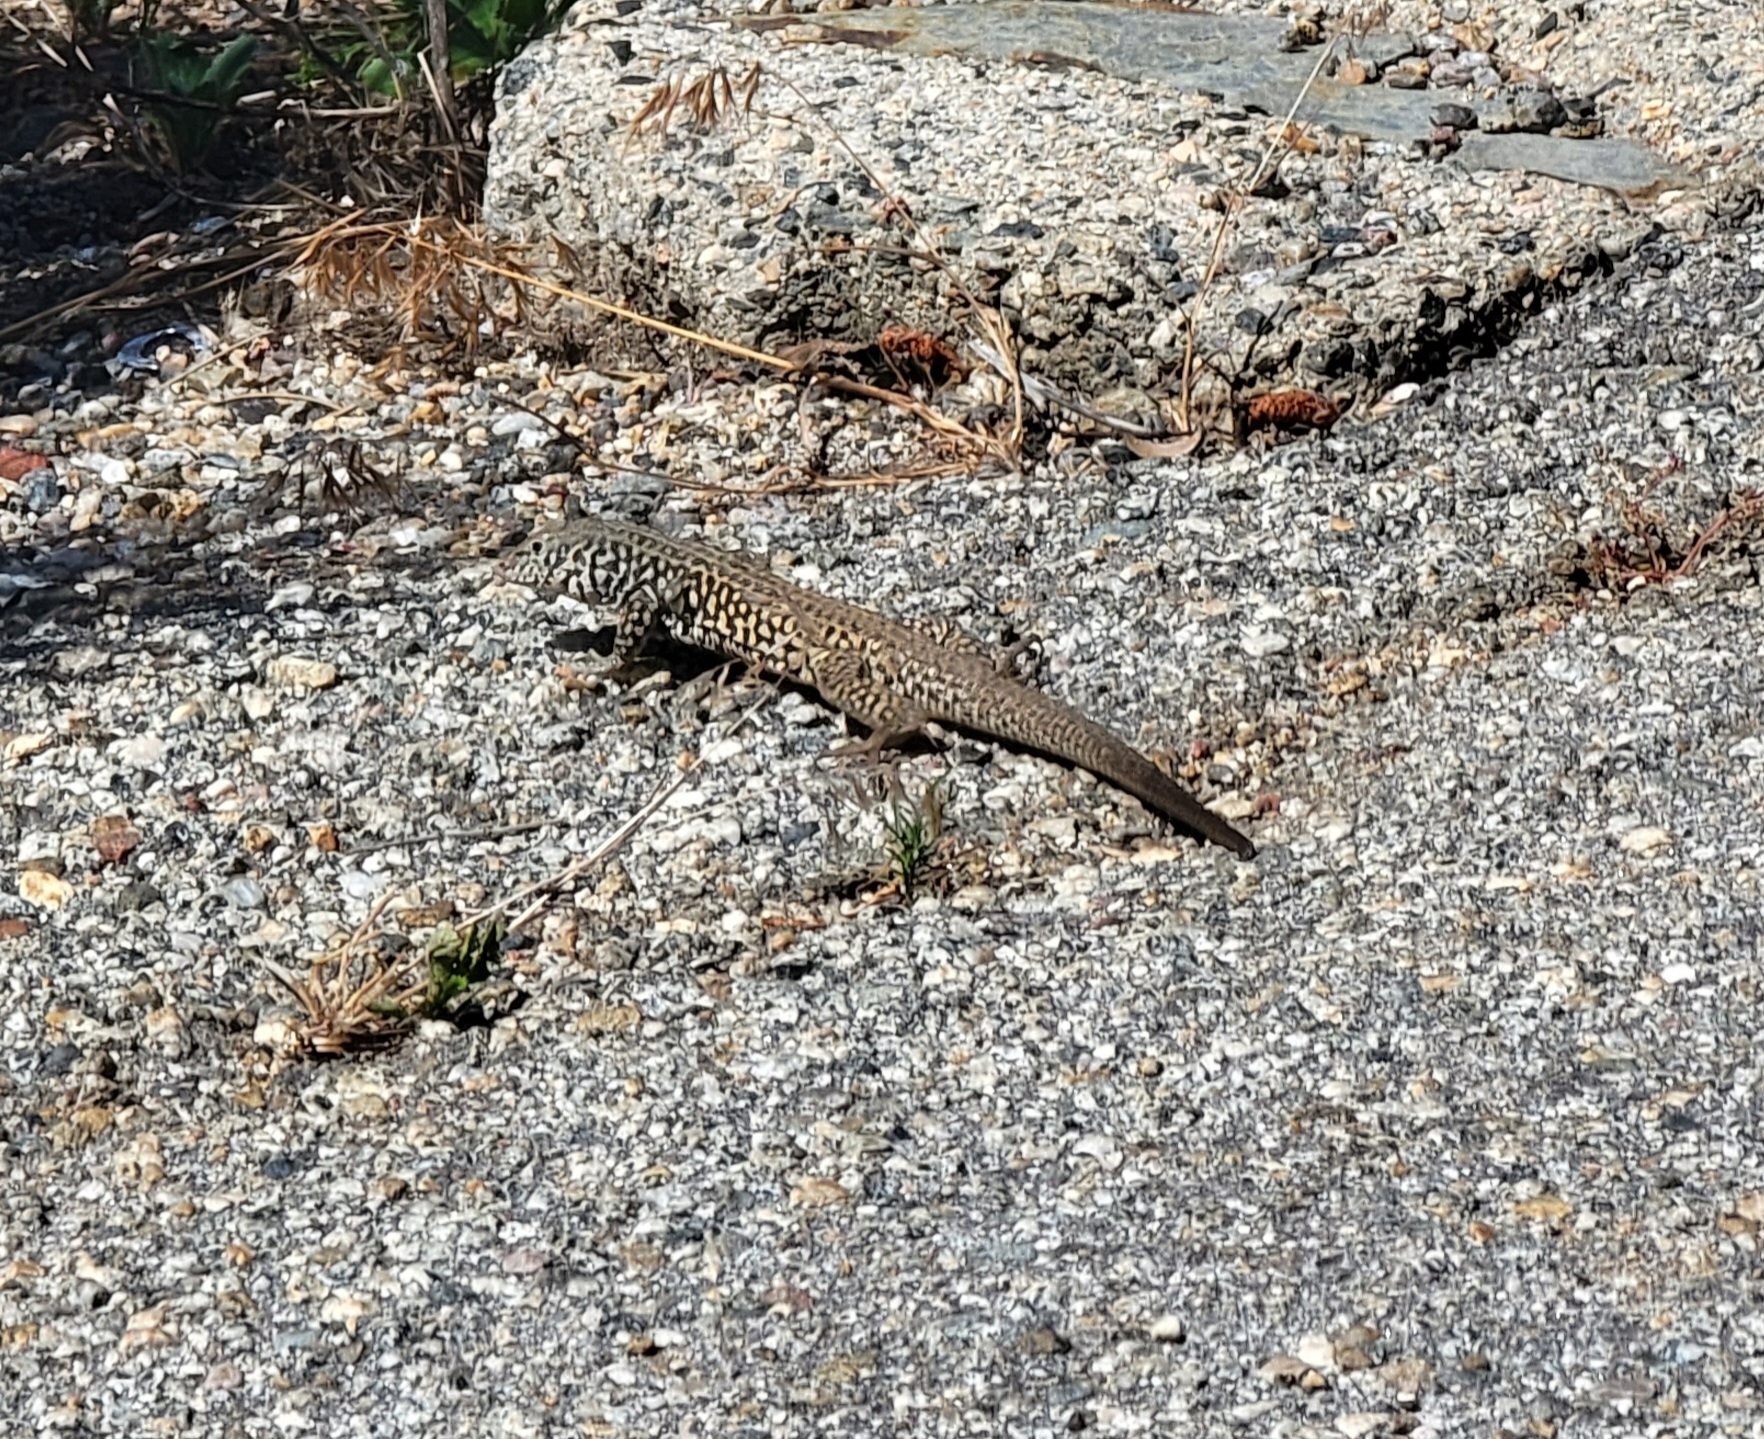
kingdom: Animalia
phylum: Chordata
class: Squamata
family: Teiidae
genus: Aspidoscelis
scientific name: Aspidoscelis tigris
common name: Tiger whiptail
